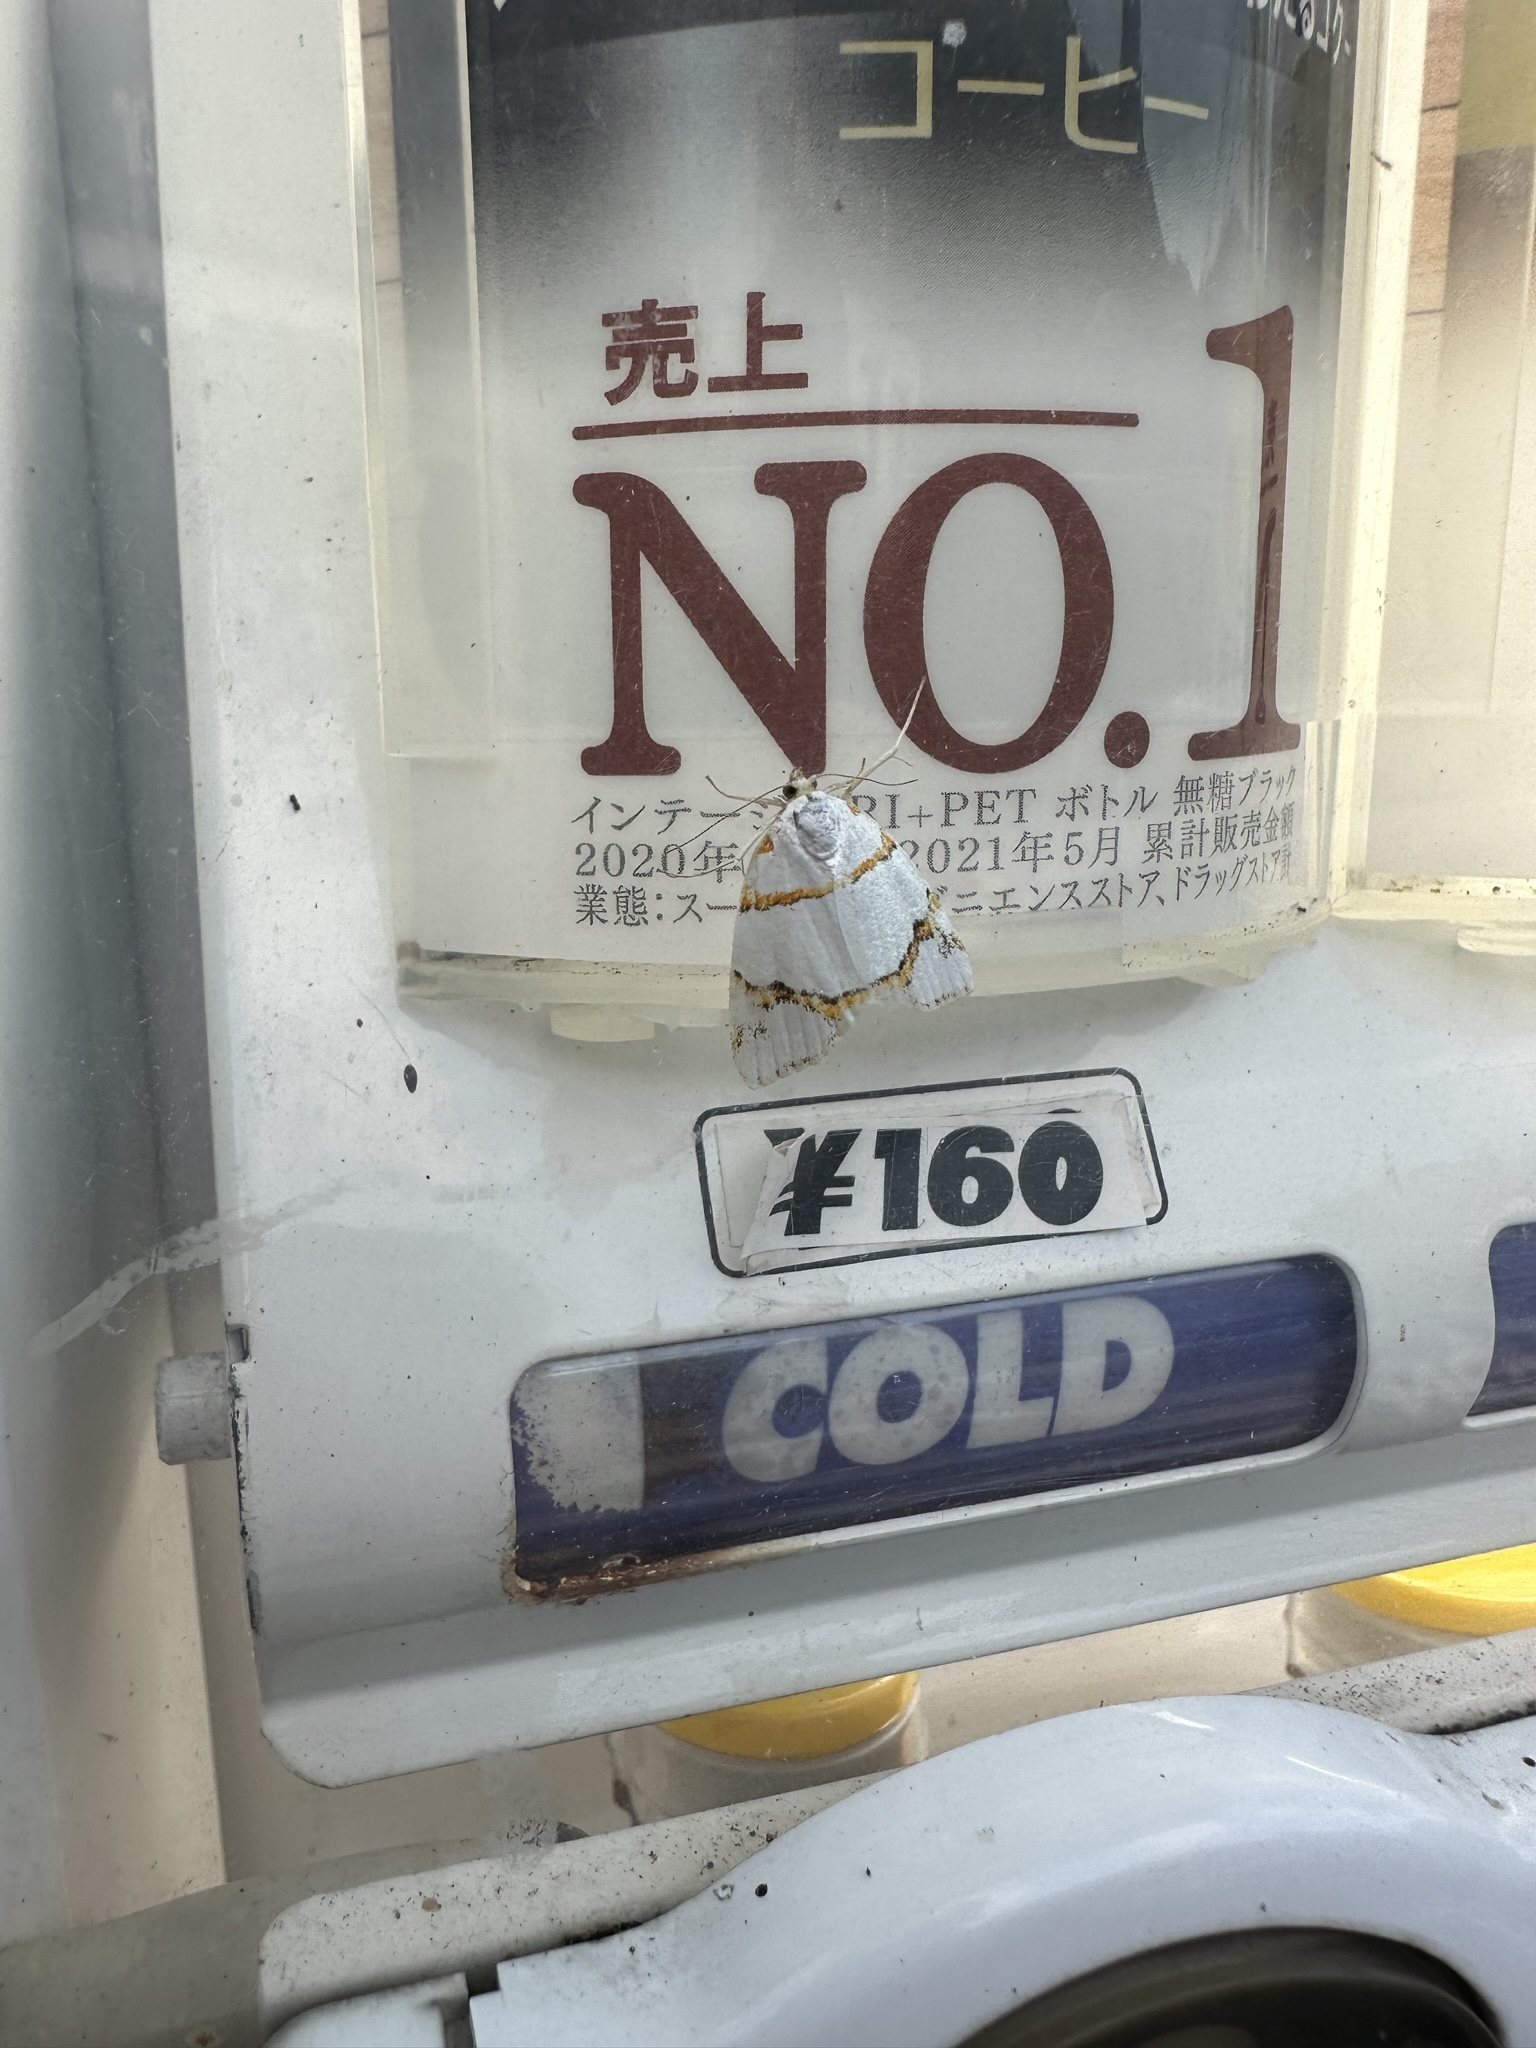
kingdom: Animalia
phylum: Arthropoda
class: Insecta
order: Lepidoptera
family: Nolidae
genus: Ariolica
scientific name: Ariolica argentea
